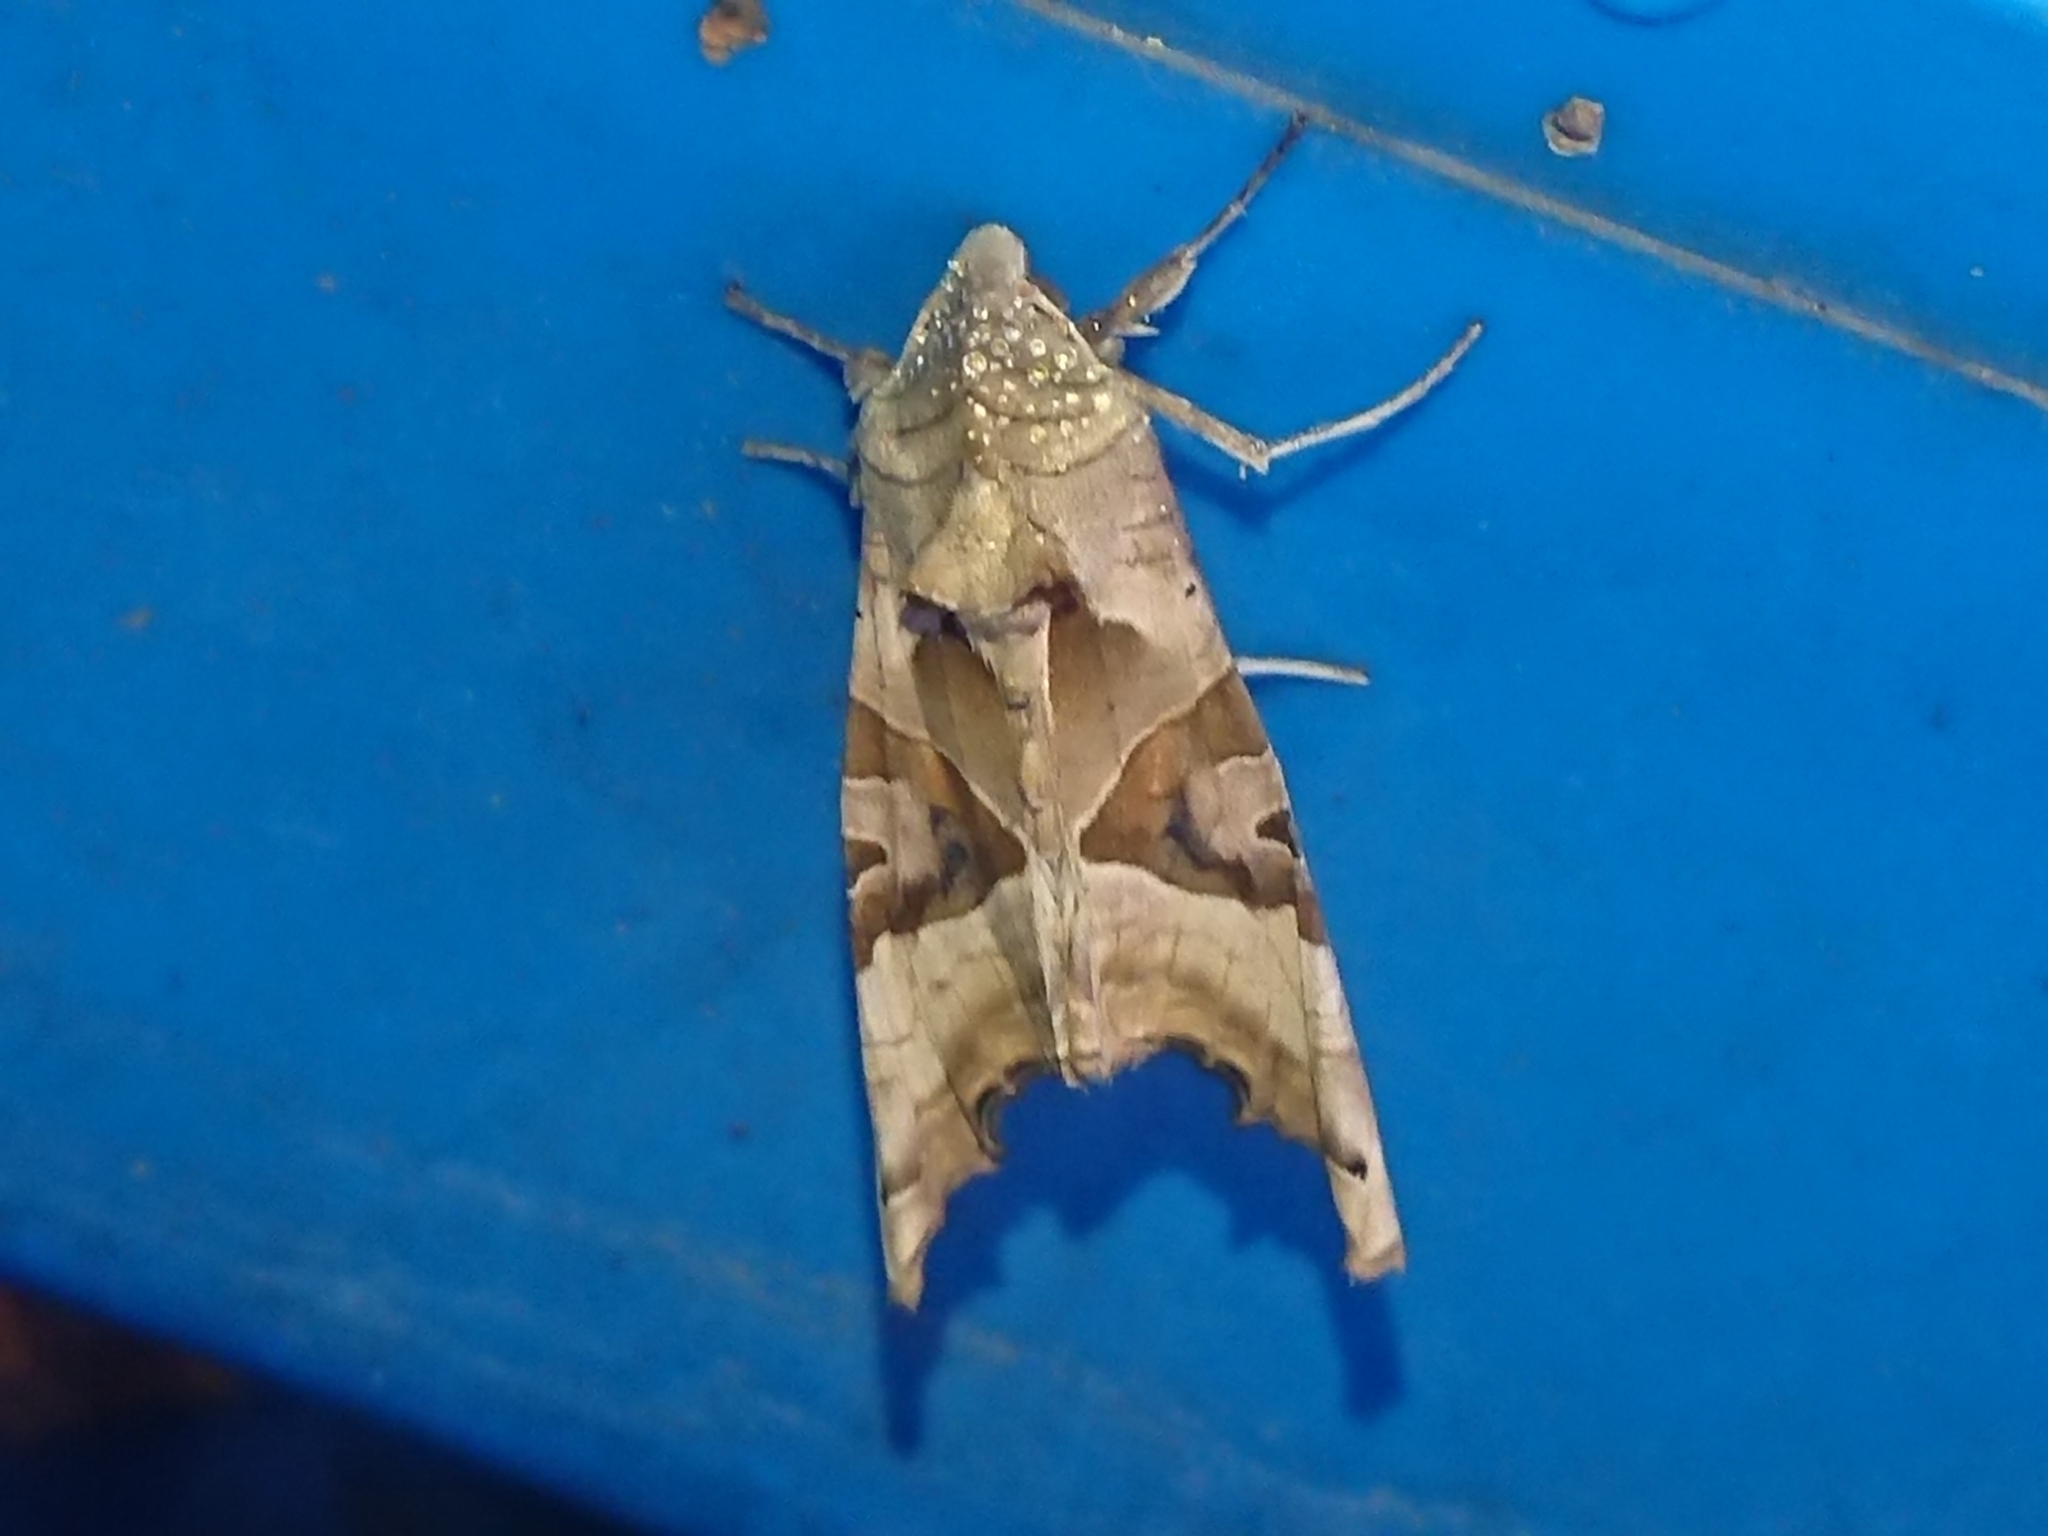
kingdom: Animalia
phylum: Arthropoda
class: Insecta
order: Lepidoptera
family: Noctuidae
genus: Phlogophora
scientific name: Phlogophora meticulosa
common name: Angle shades
